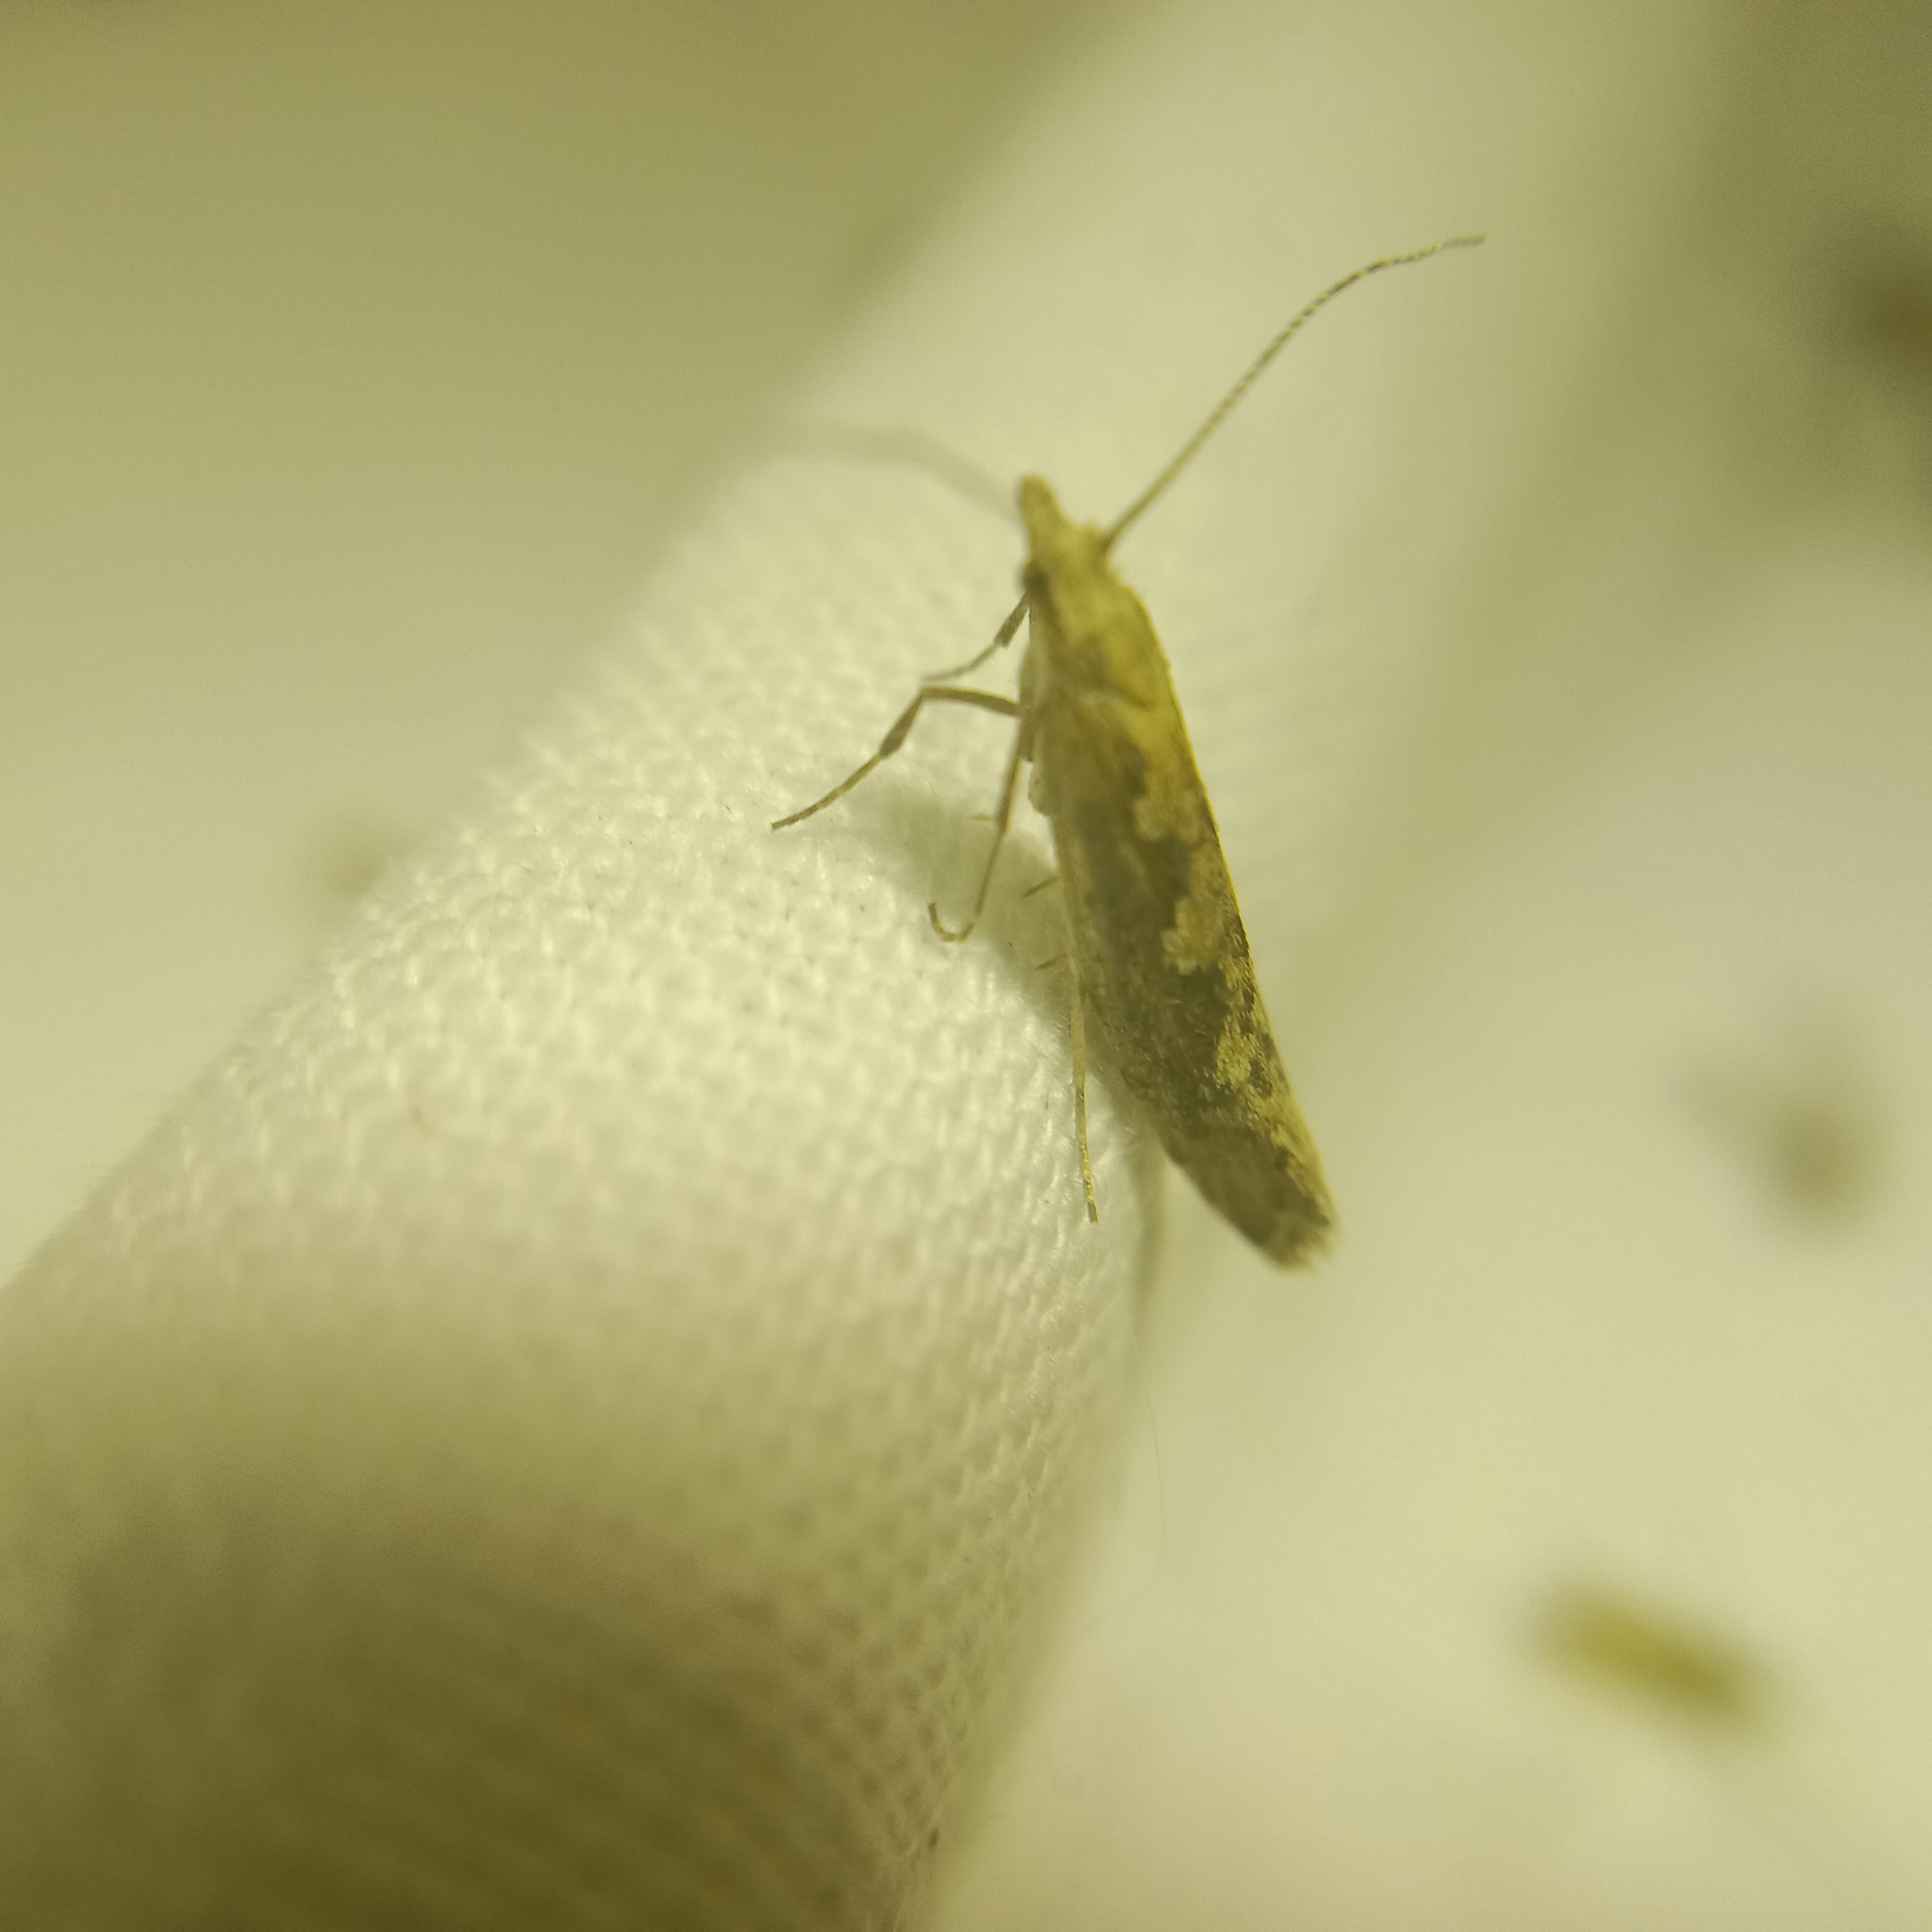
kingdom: Animalia
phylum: Arthropoda
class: Insecta
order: Lepidoptera
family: Plutellidae
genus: Plutella
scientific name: Plutella xylostella
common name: Diamond-back moth
